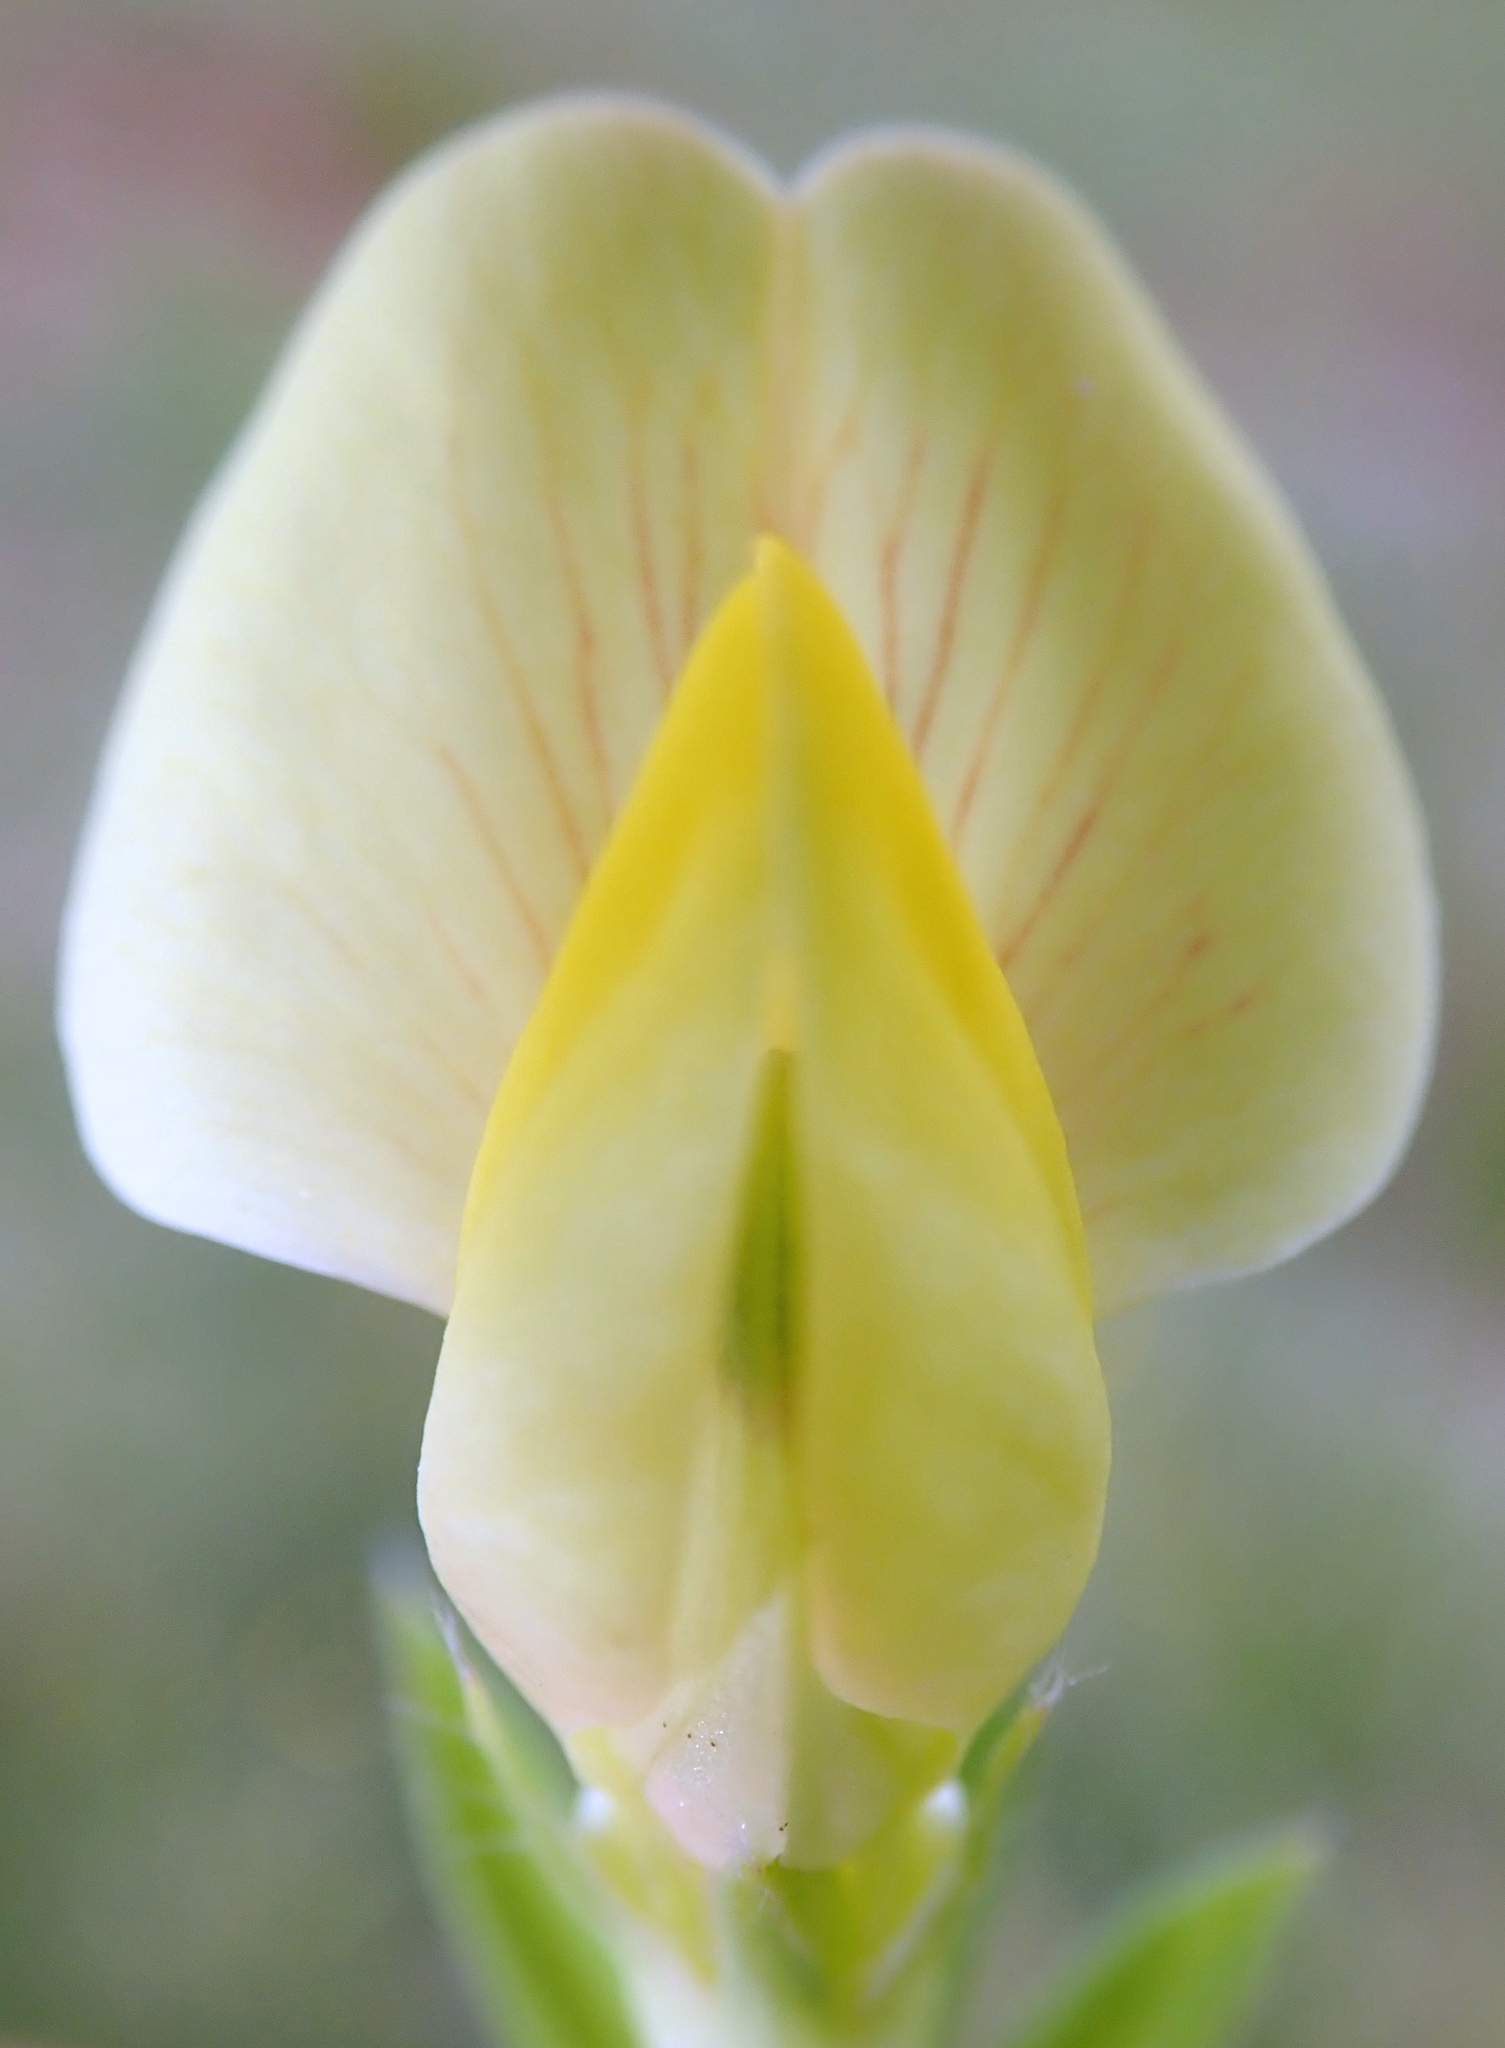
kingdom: Plantae
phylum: Tracheophyta
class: Magnoliopsida
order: Fabales
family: Fabaceae
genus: Lotus
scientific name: Lotus maritimus
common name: Dragon's-teeth
